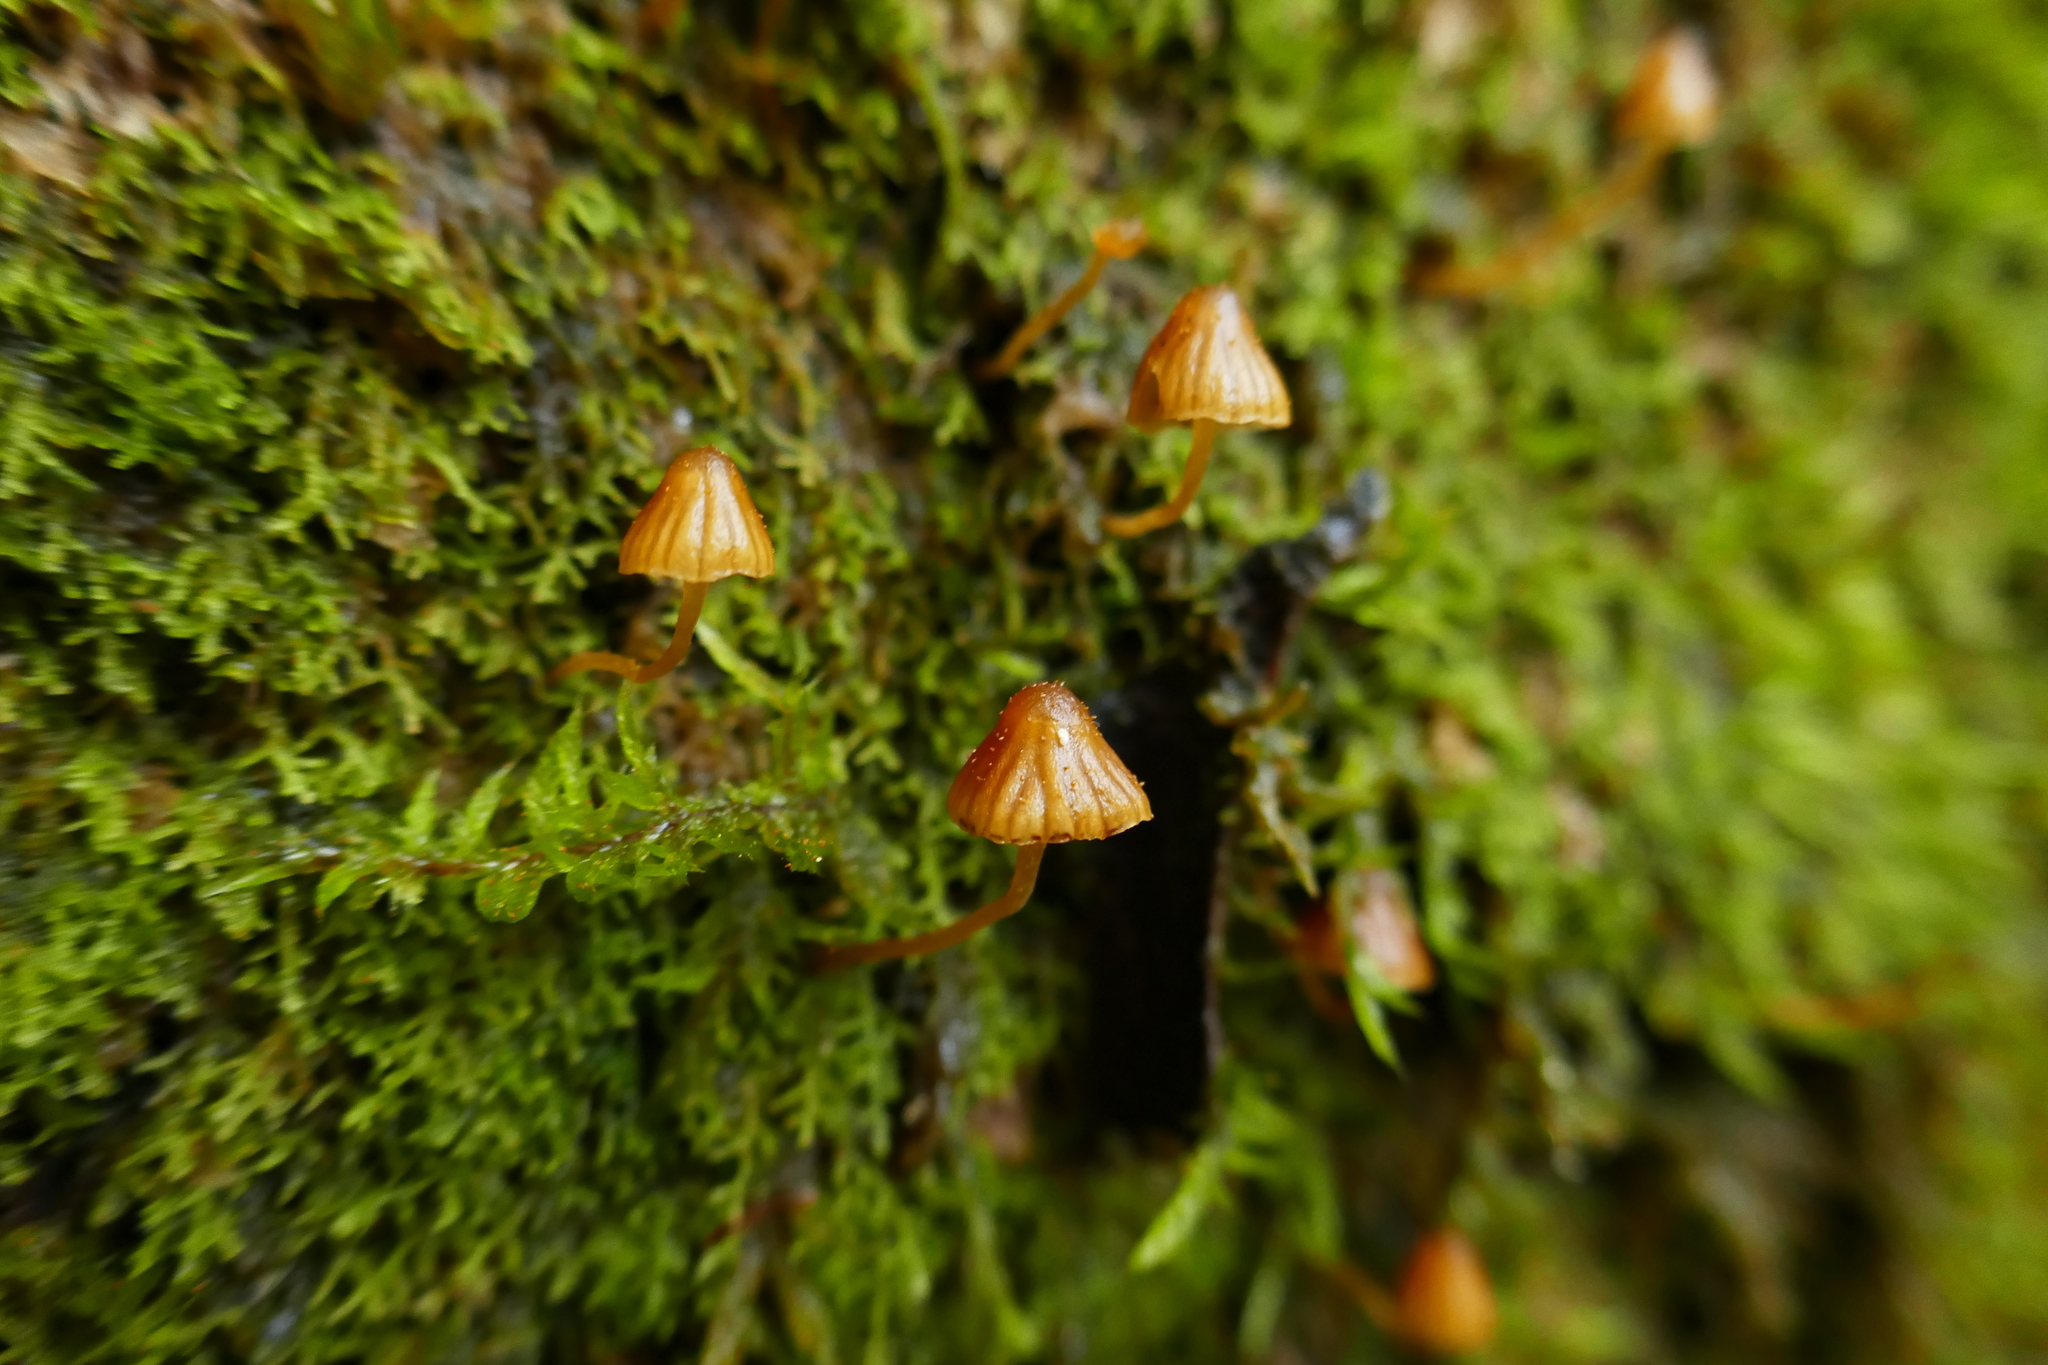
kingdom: Fungi
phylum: Basidiomycota
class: Agaricomycetes
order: Agaricales
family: Hymenogastraceae
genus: Galerina
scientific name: Galerina hypnorum
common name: Moss bell
